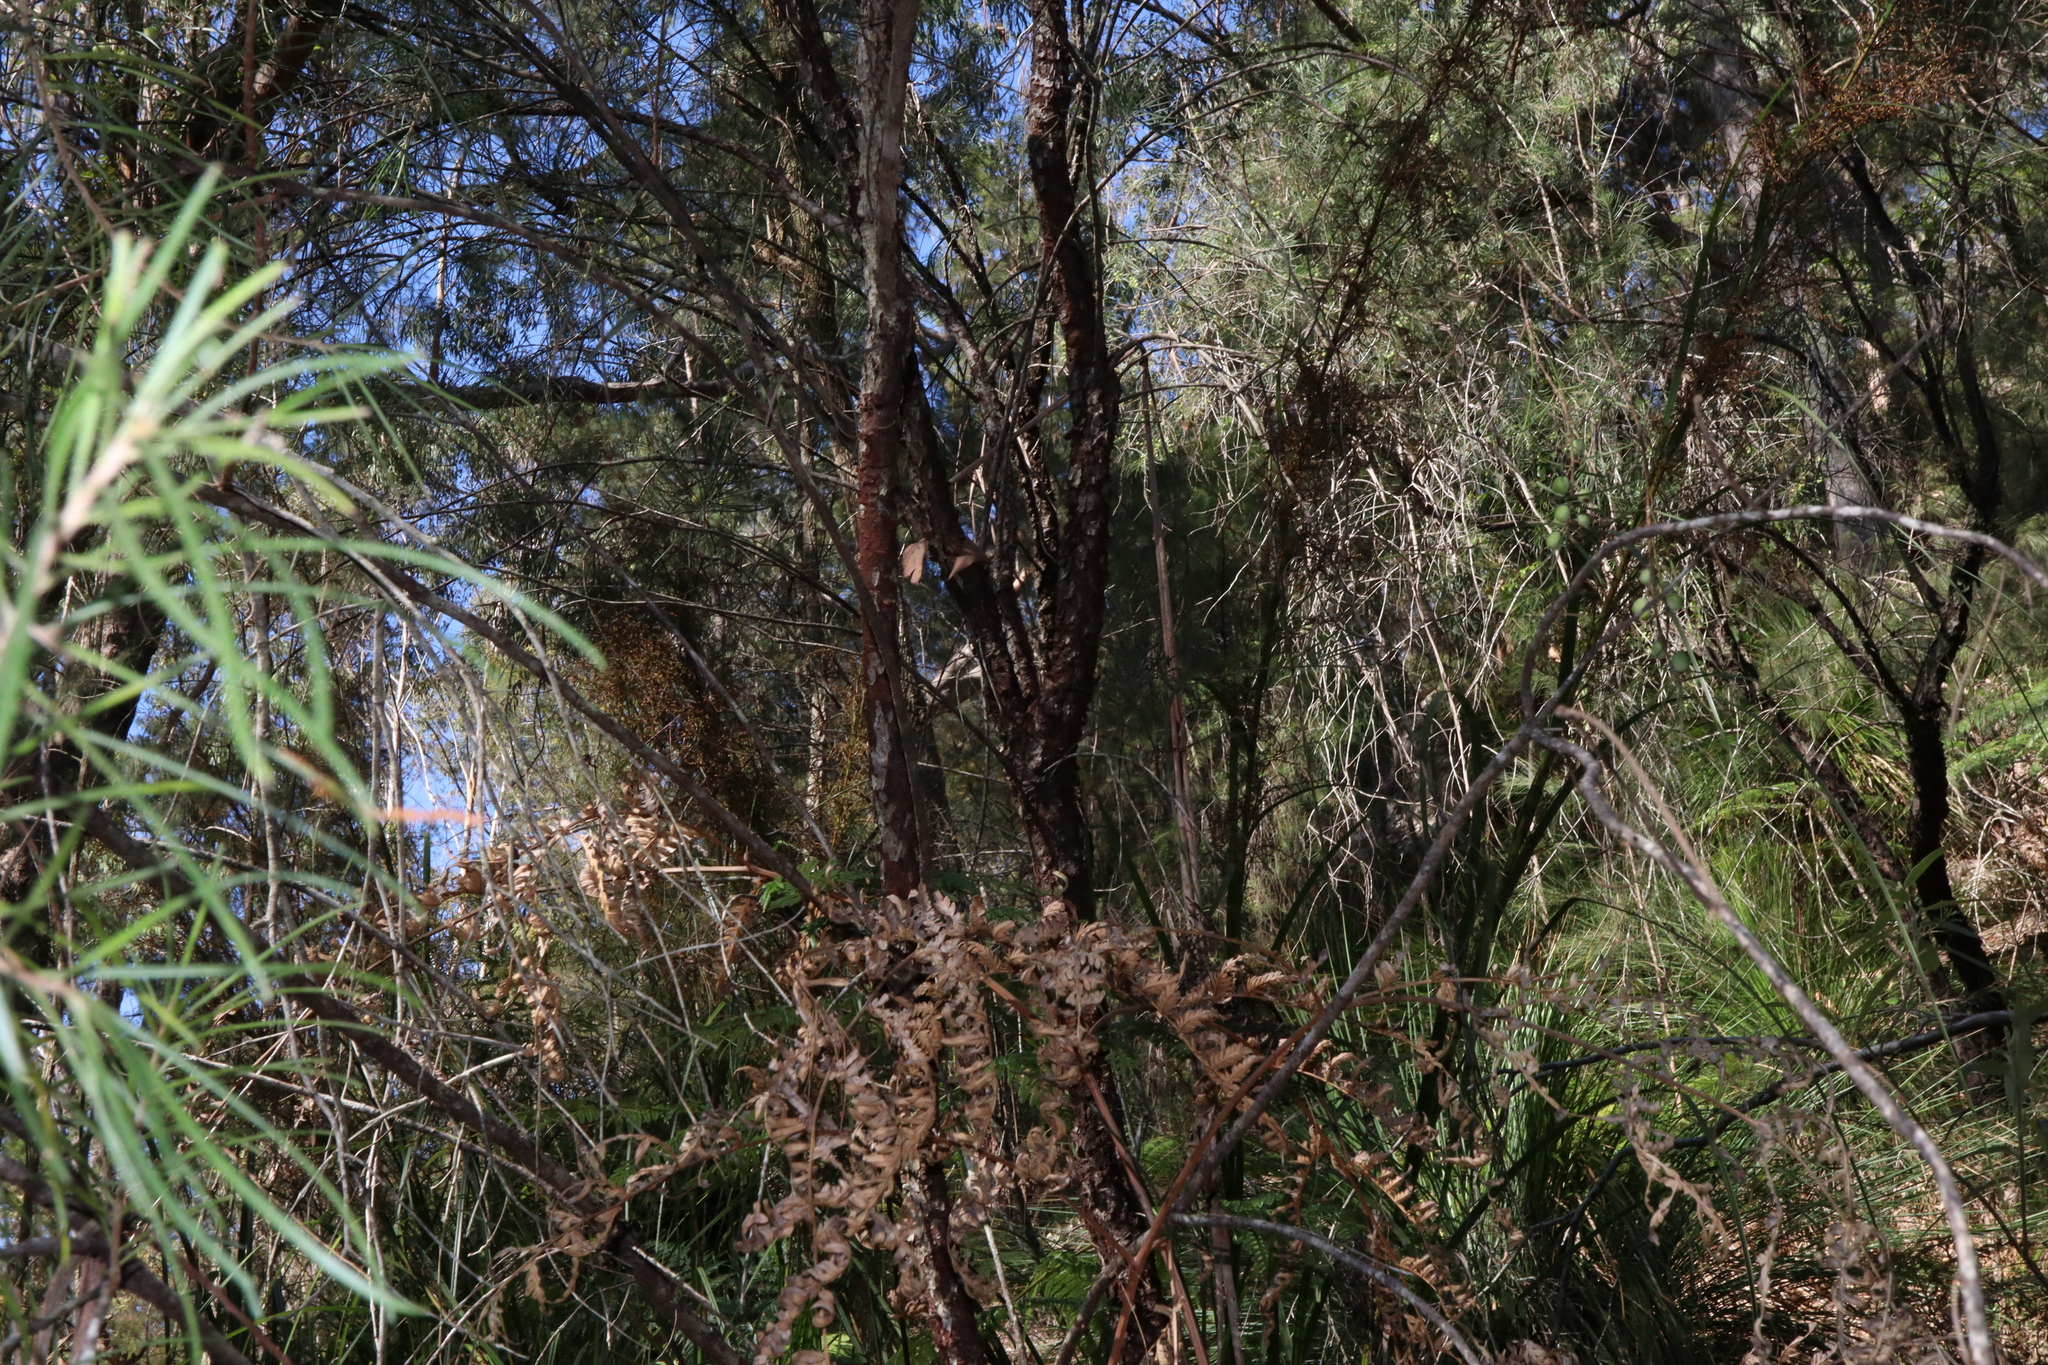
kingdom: Plantae
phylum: Tracheophyta
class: Magnoliopsida
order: Proteales
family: Proteaceae
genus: Persoonia
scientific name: Persoonia linearis
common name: Narrow-leaf geebung
